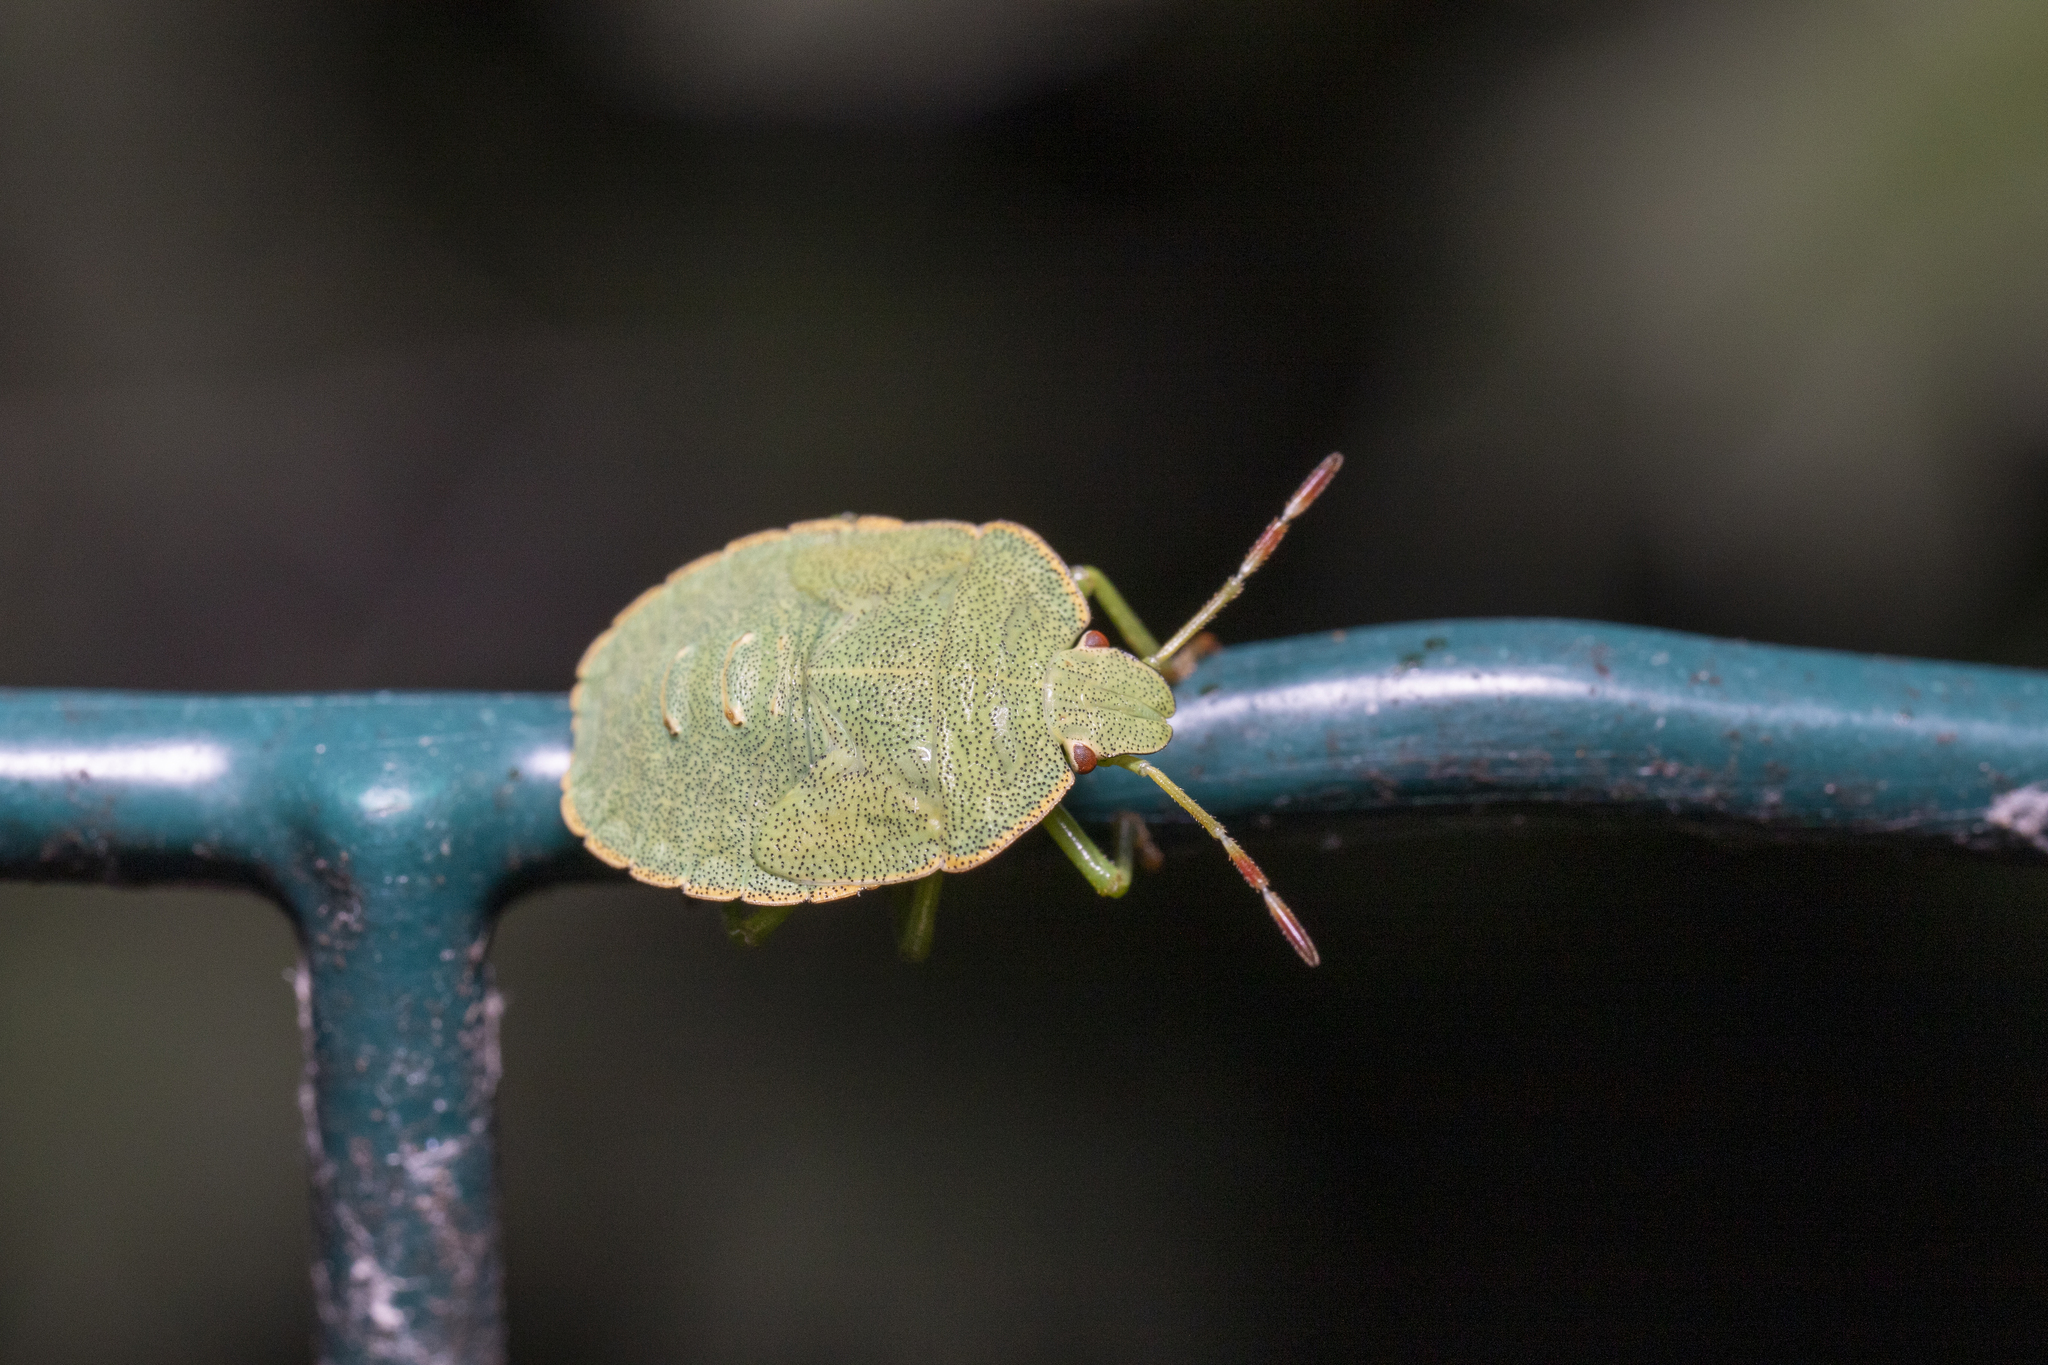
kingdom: Animalia
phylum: Arthropoda
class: Insecta
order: Hemiptera
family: Pentatomidae
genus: Palomena
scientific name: Palomena prasina
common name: Green shieldbug
